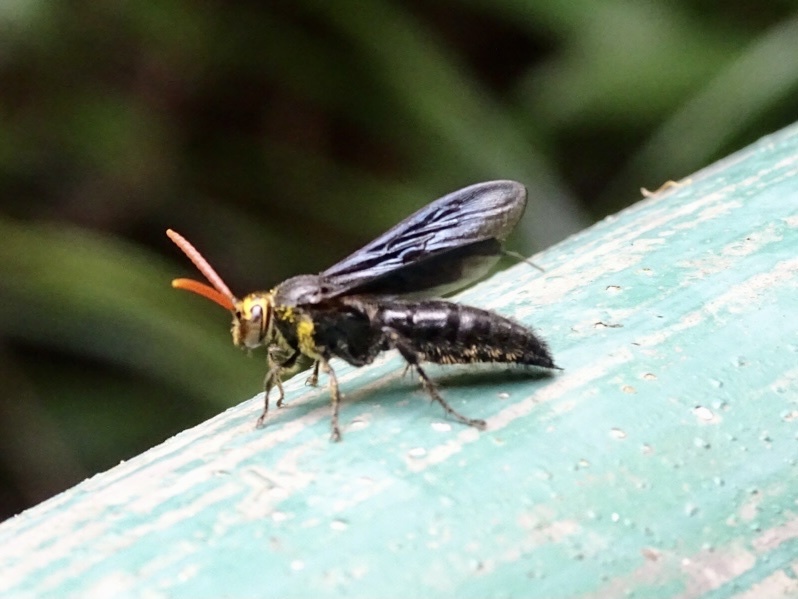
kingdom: Animalia
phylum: Arthropoda
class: Insecta
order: Hymenoptera
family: Scoliidae
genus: Scolia
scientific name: Scolia superciliaris
